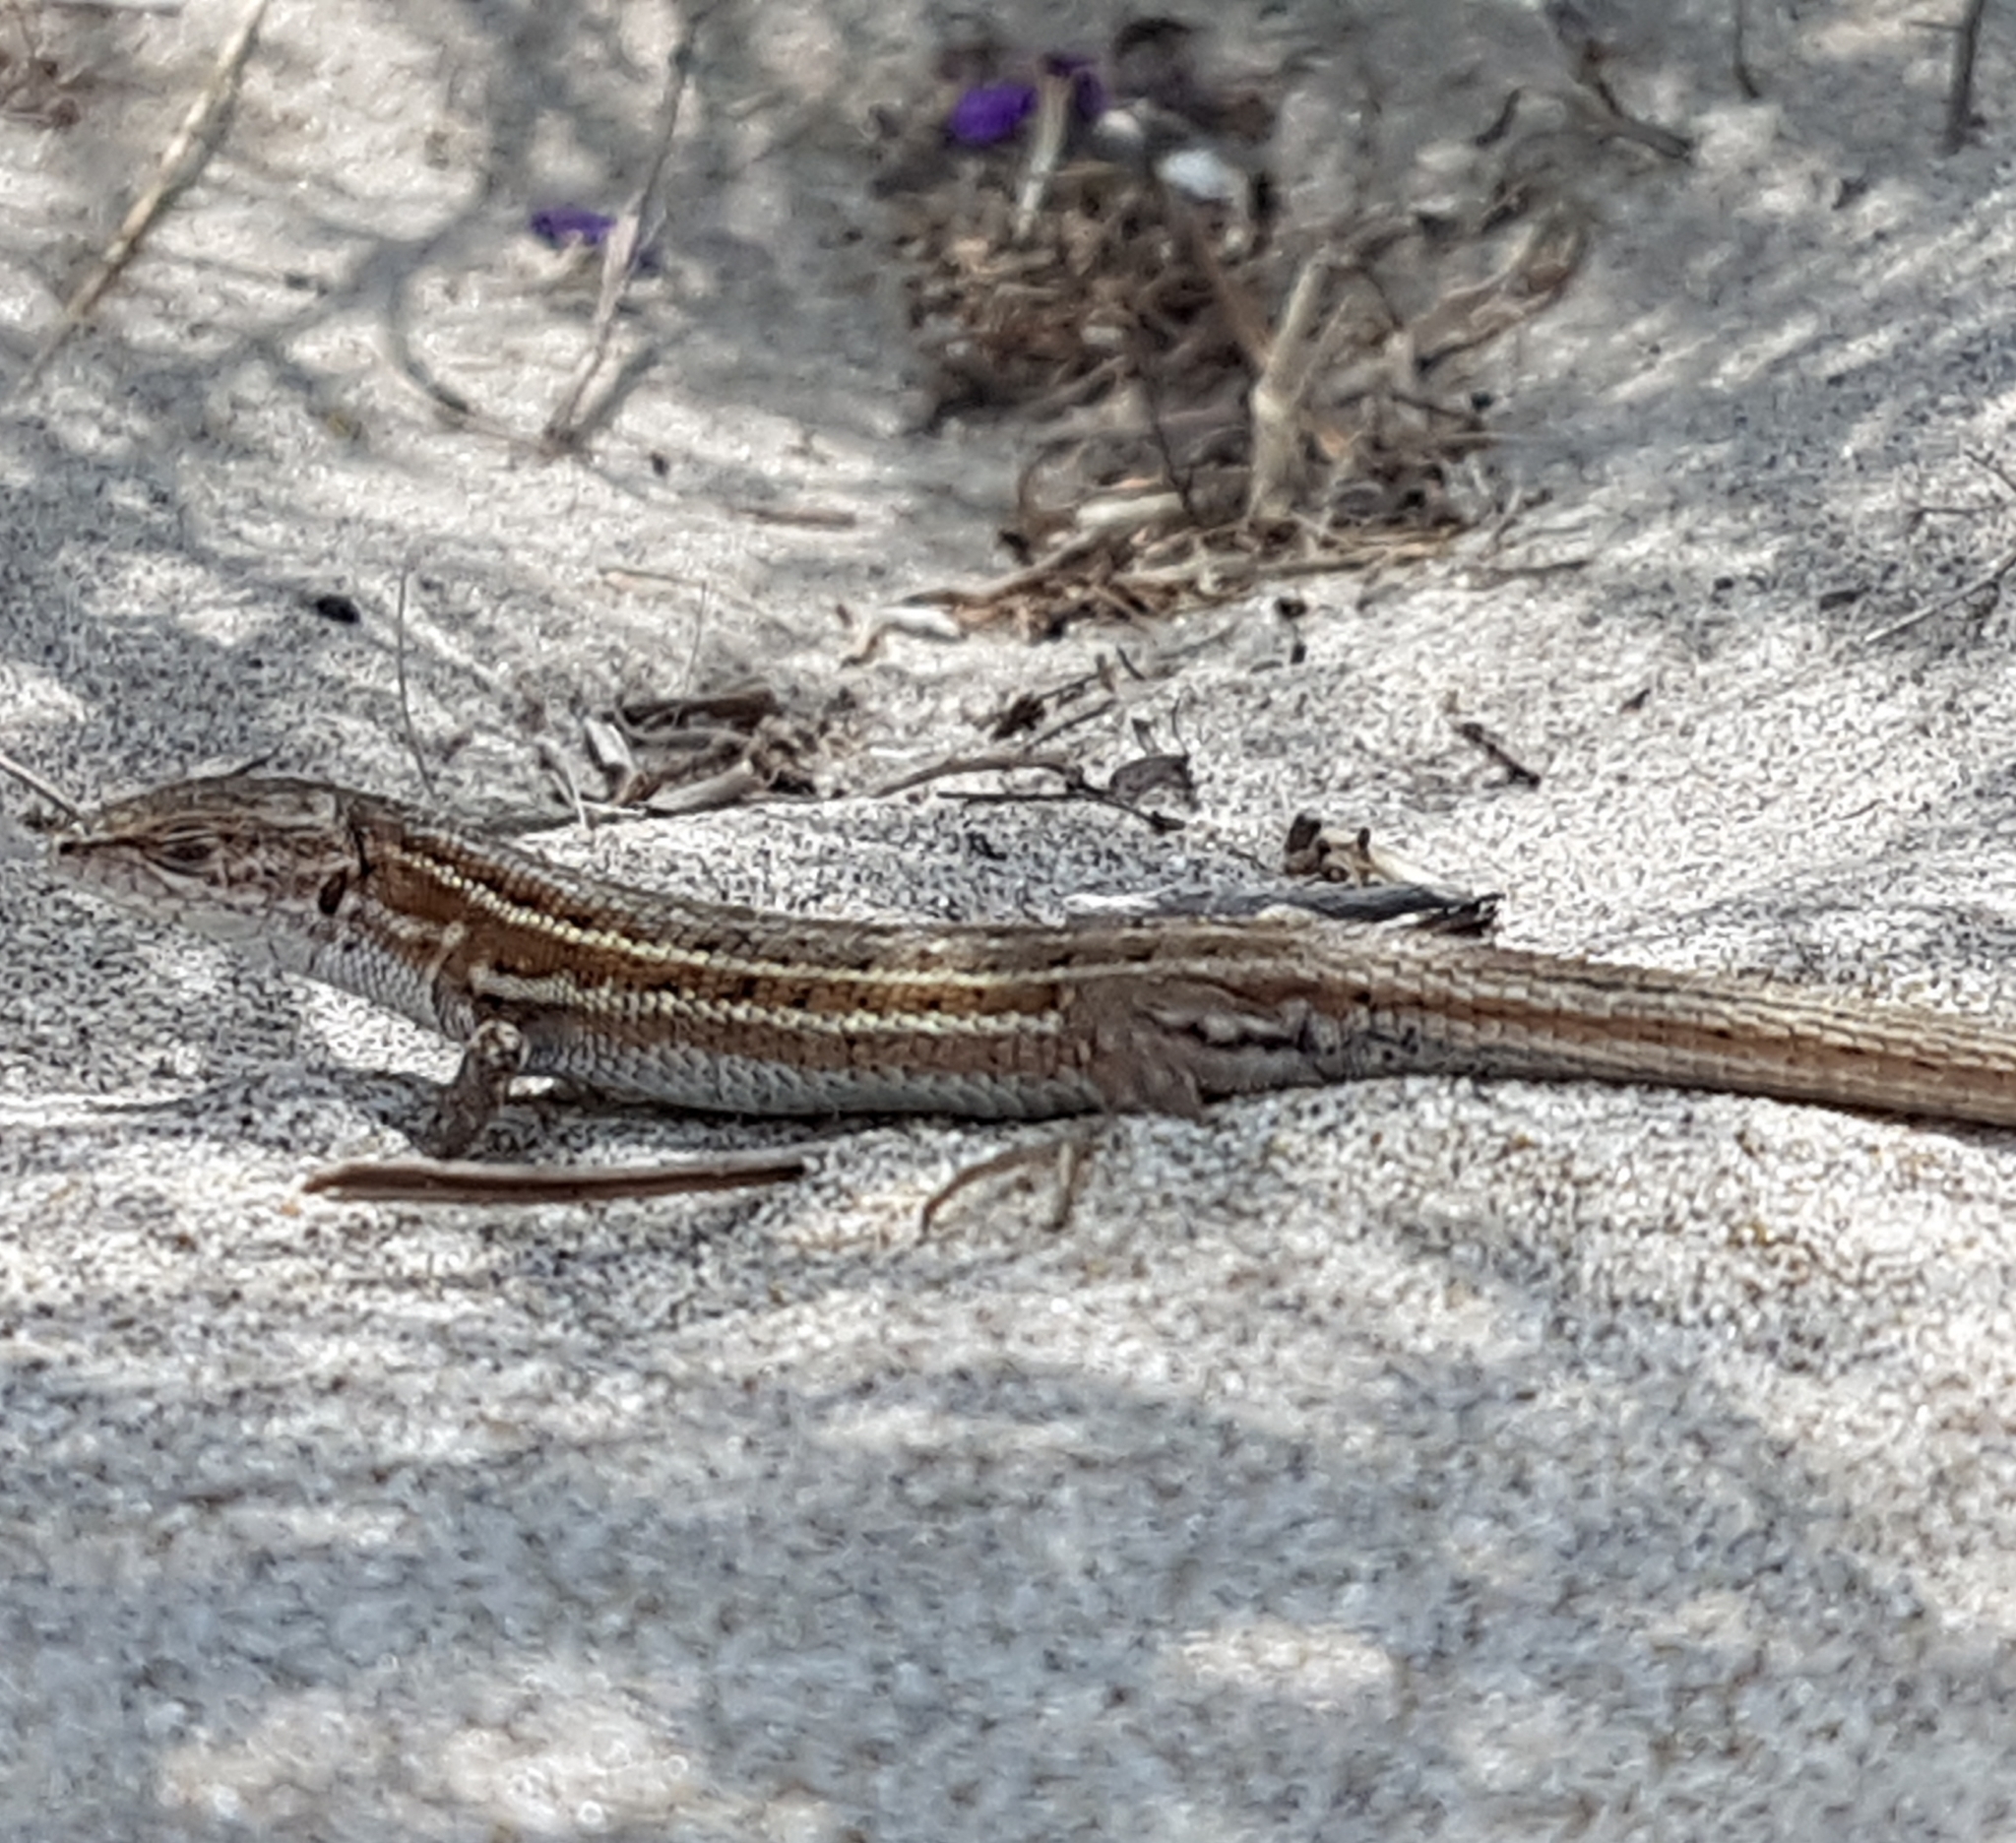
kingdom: Animalia
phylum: Chordata
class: Squamata
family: Lacertidae
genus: Psammodromus
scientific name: Psammodromus edwarsianus
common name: East iberian psammodromus
